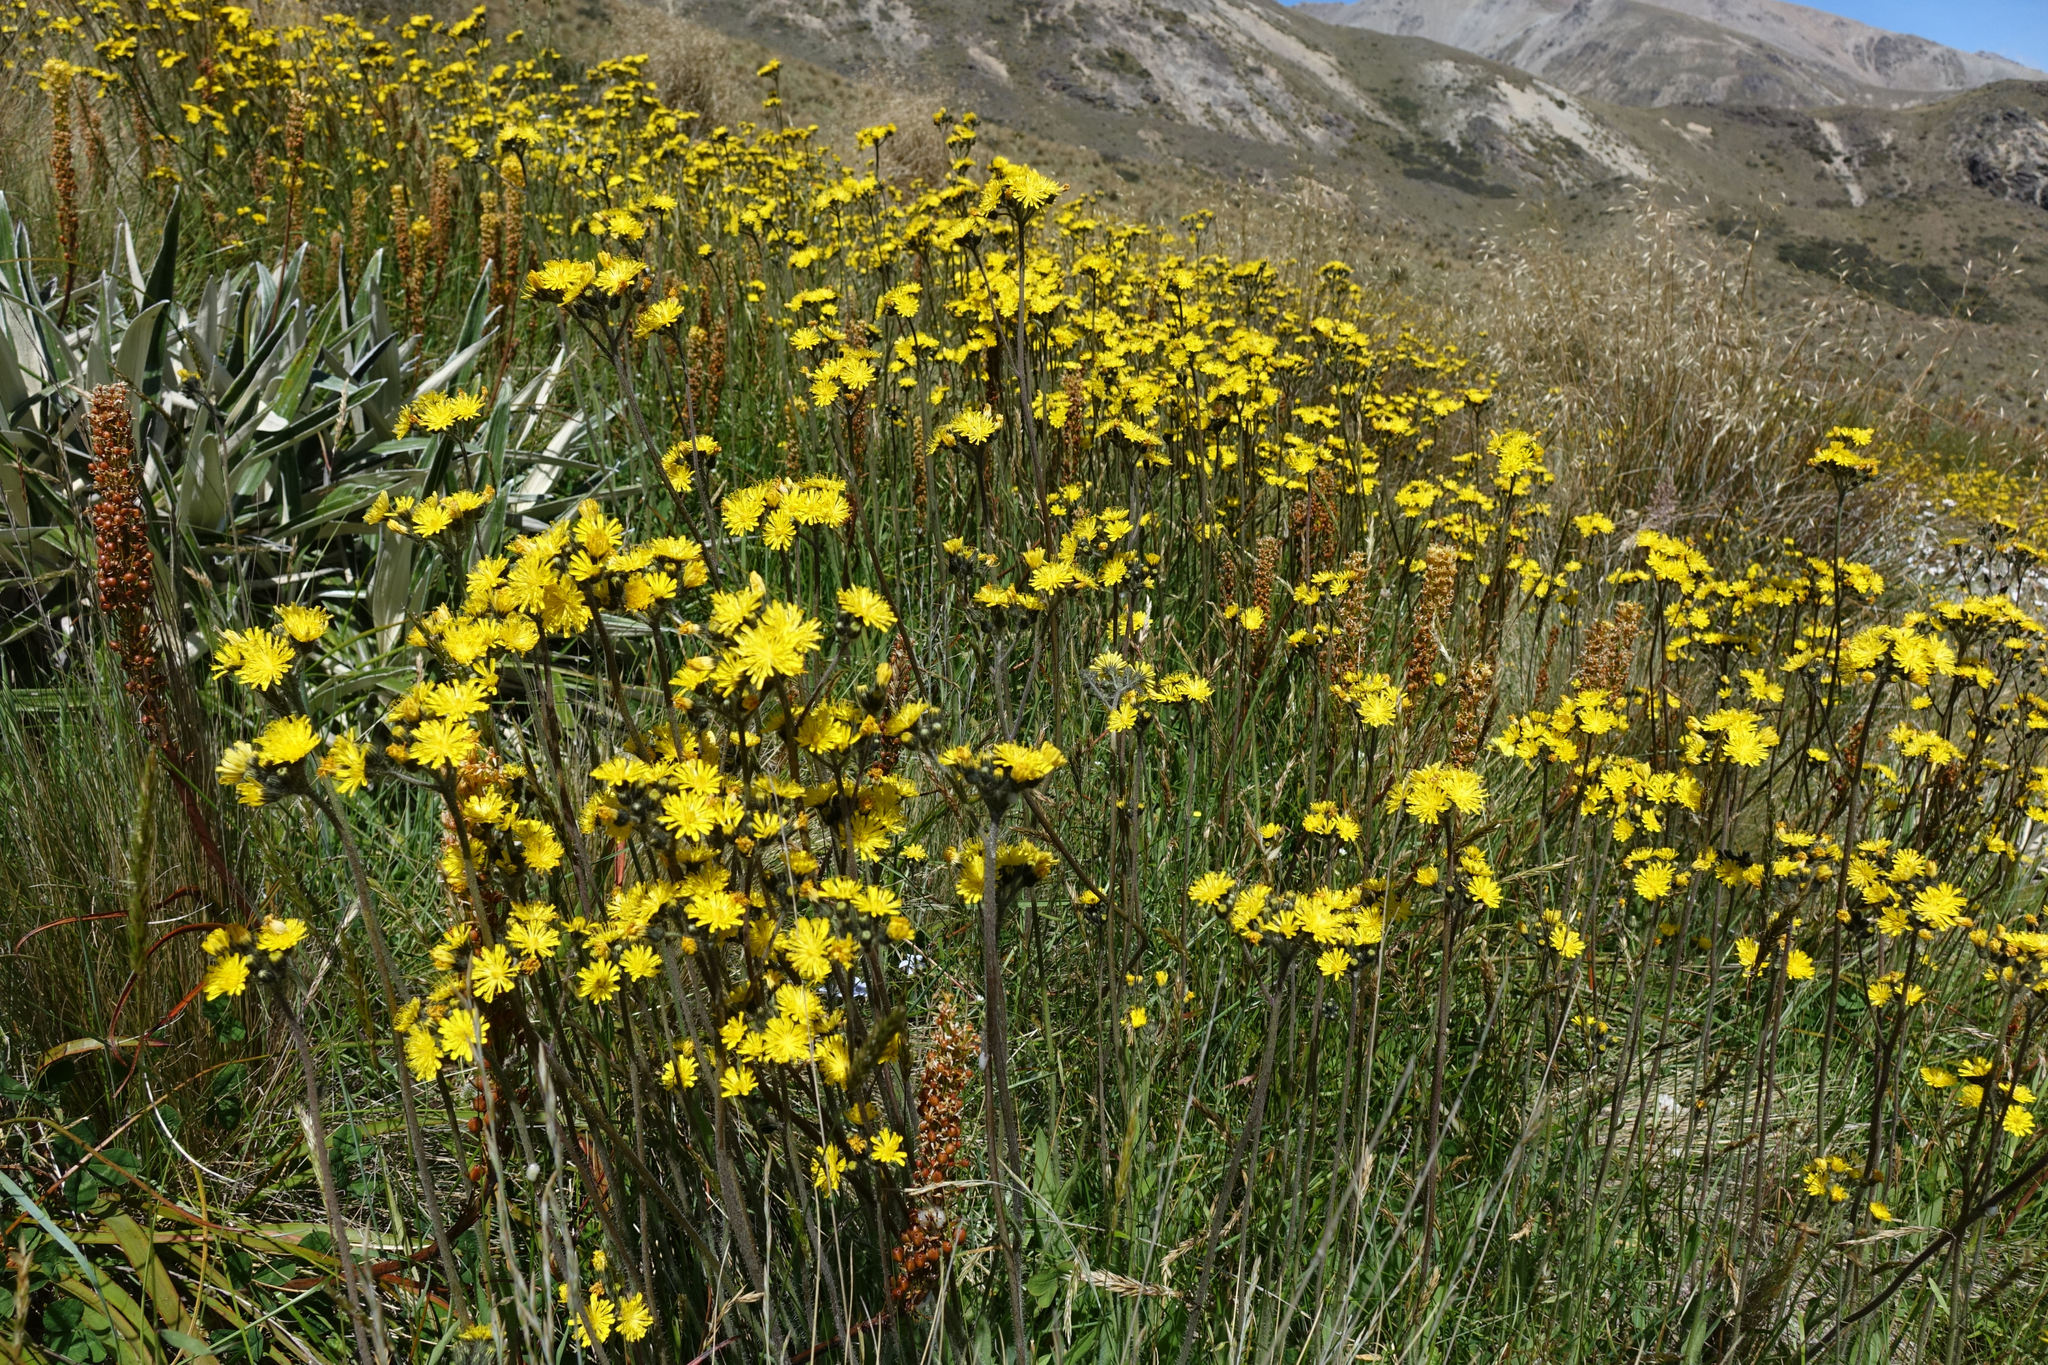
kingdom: Plantae
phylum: Tracheophyta
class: Magnoliopsida
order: Asterales
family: Asteraceae
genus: Pilosella
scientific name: Pilosella piloselloides
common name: Glaucous king-devil
